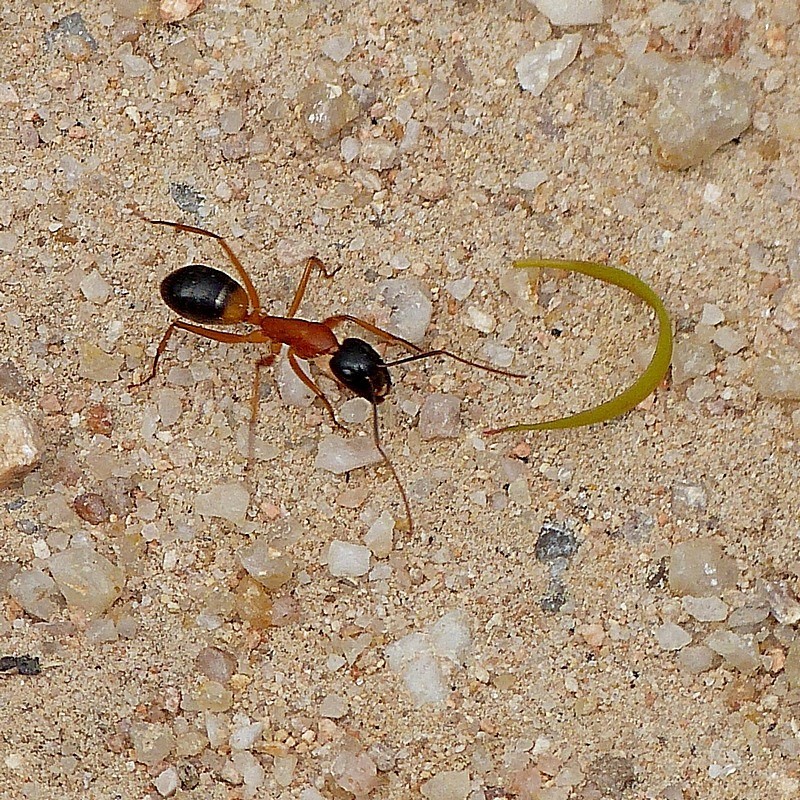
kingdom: Animalia
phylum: Arthropoda
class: Insecta
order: Hymenoptera
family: Formicidae
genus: Camponotus
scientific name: Camponotus consobrinus
